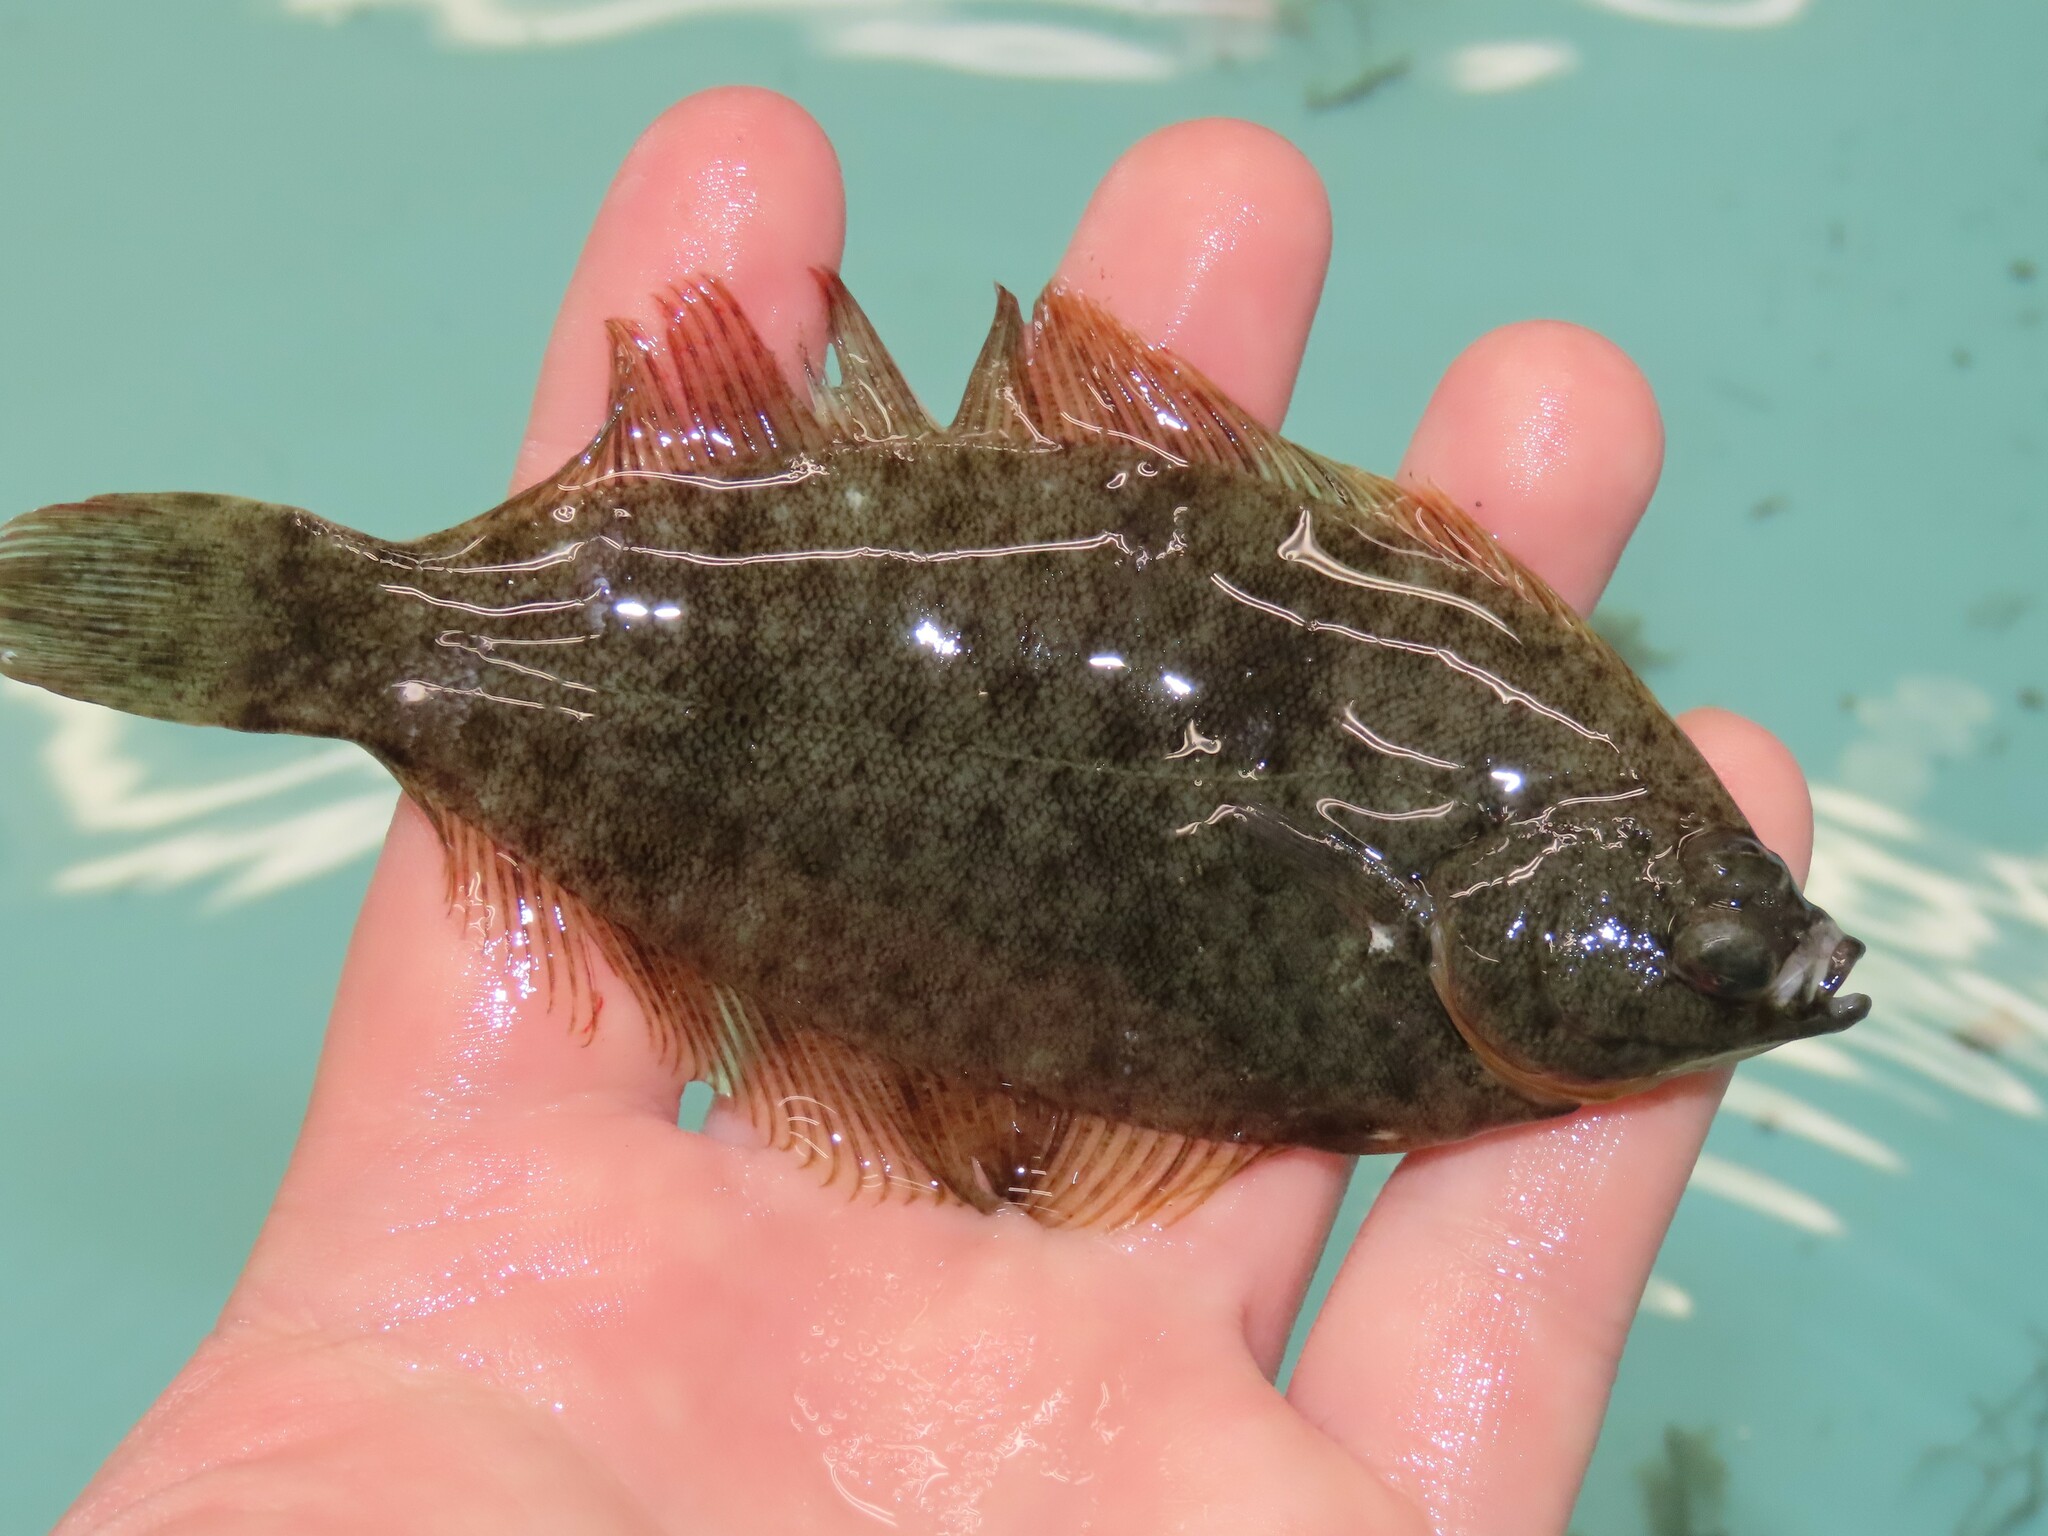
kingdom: Animalia
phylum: Chordata
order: Pleuronectiformes
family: Pleuronectidae
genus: Pseudopleuronectes
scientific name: Pseudopleuronectes americanus
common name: Black backs
